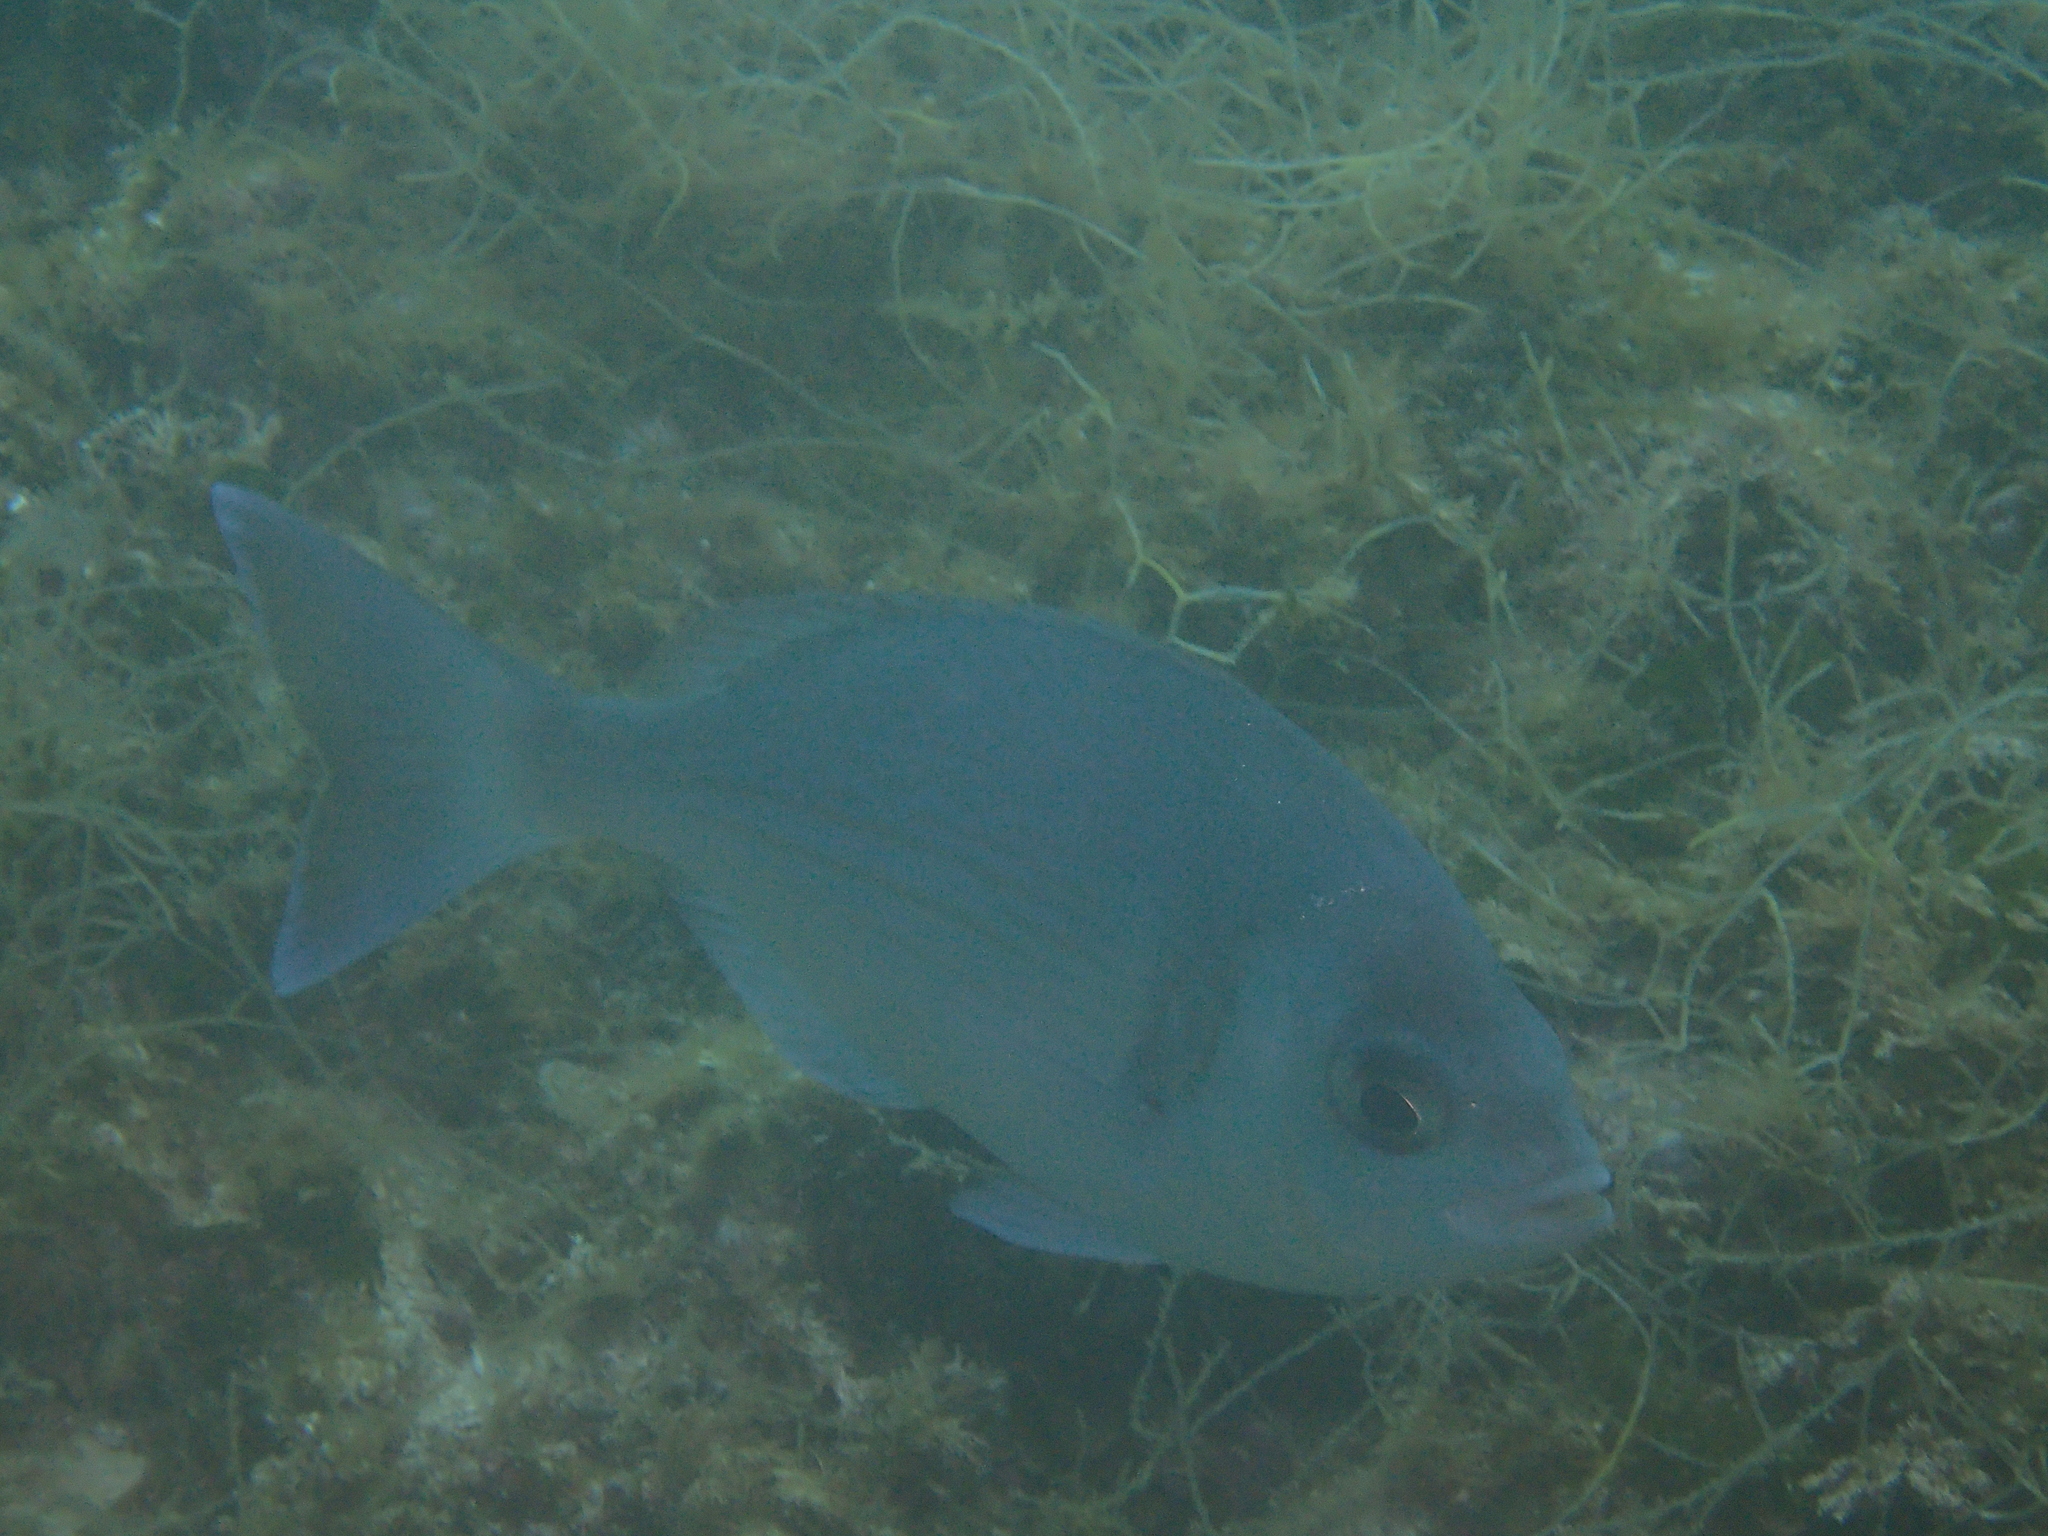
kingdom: Animalia
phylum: Chordata
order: Perciformes
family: Sparidae
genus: Spondyliosoma
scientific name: Spondyliosoma cantharus
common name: Black seabream
